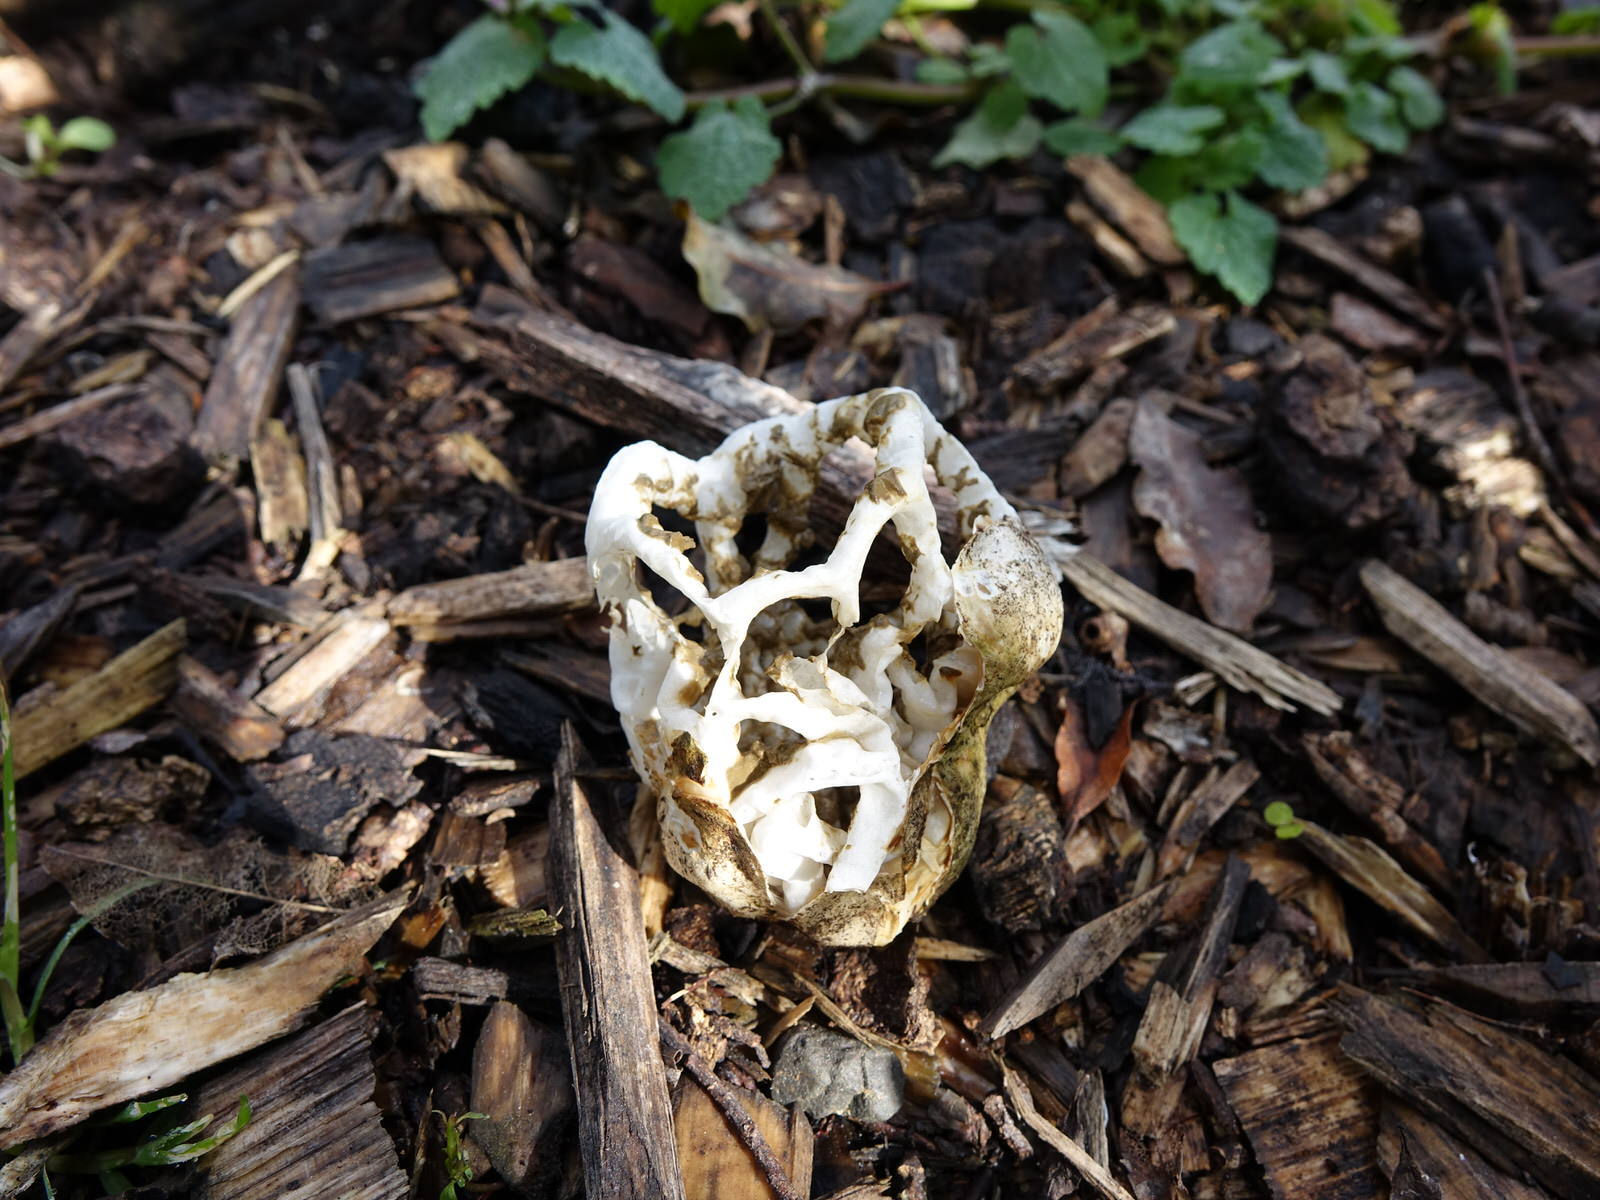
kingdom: Fungi
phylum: Basidiomycota
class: Agaricomycetes
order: Phallales
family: Phallaceae
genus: Ileodictyon
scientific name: Ileodictyon cibarium
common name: Basket fungus
